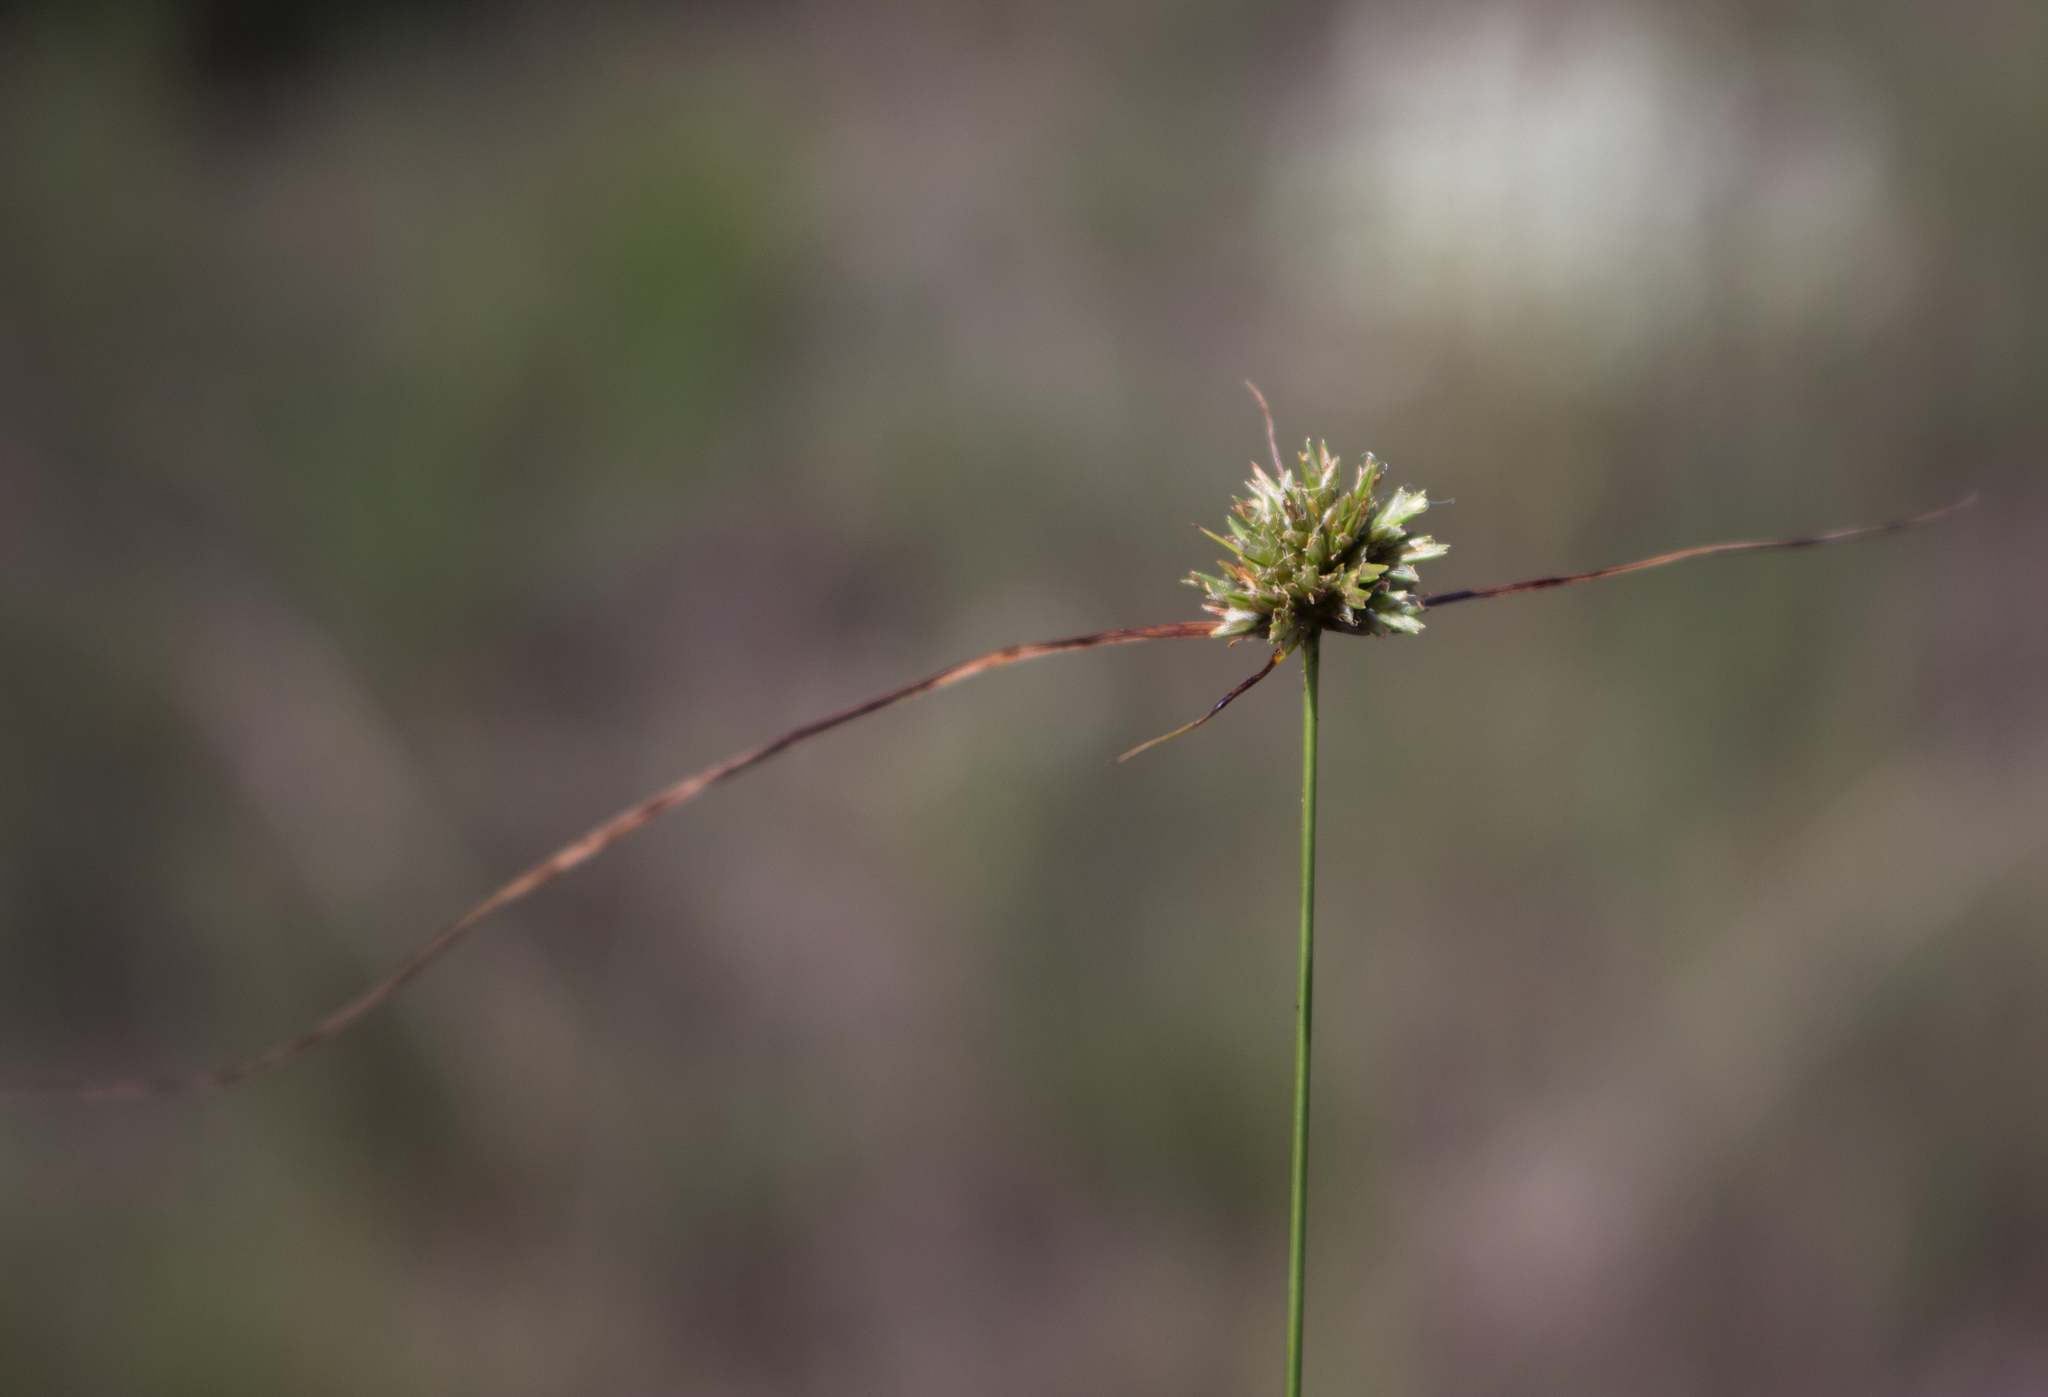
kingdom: Plantae
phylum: Tracheophyta
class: Liliopsida
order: Poales
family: Cyperaceae
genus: Cyperus
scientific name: Cyperus lupulinus
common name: Great plains flatsedge
